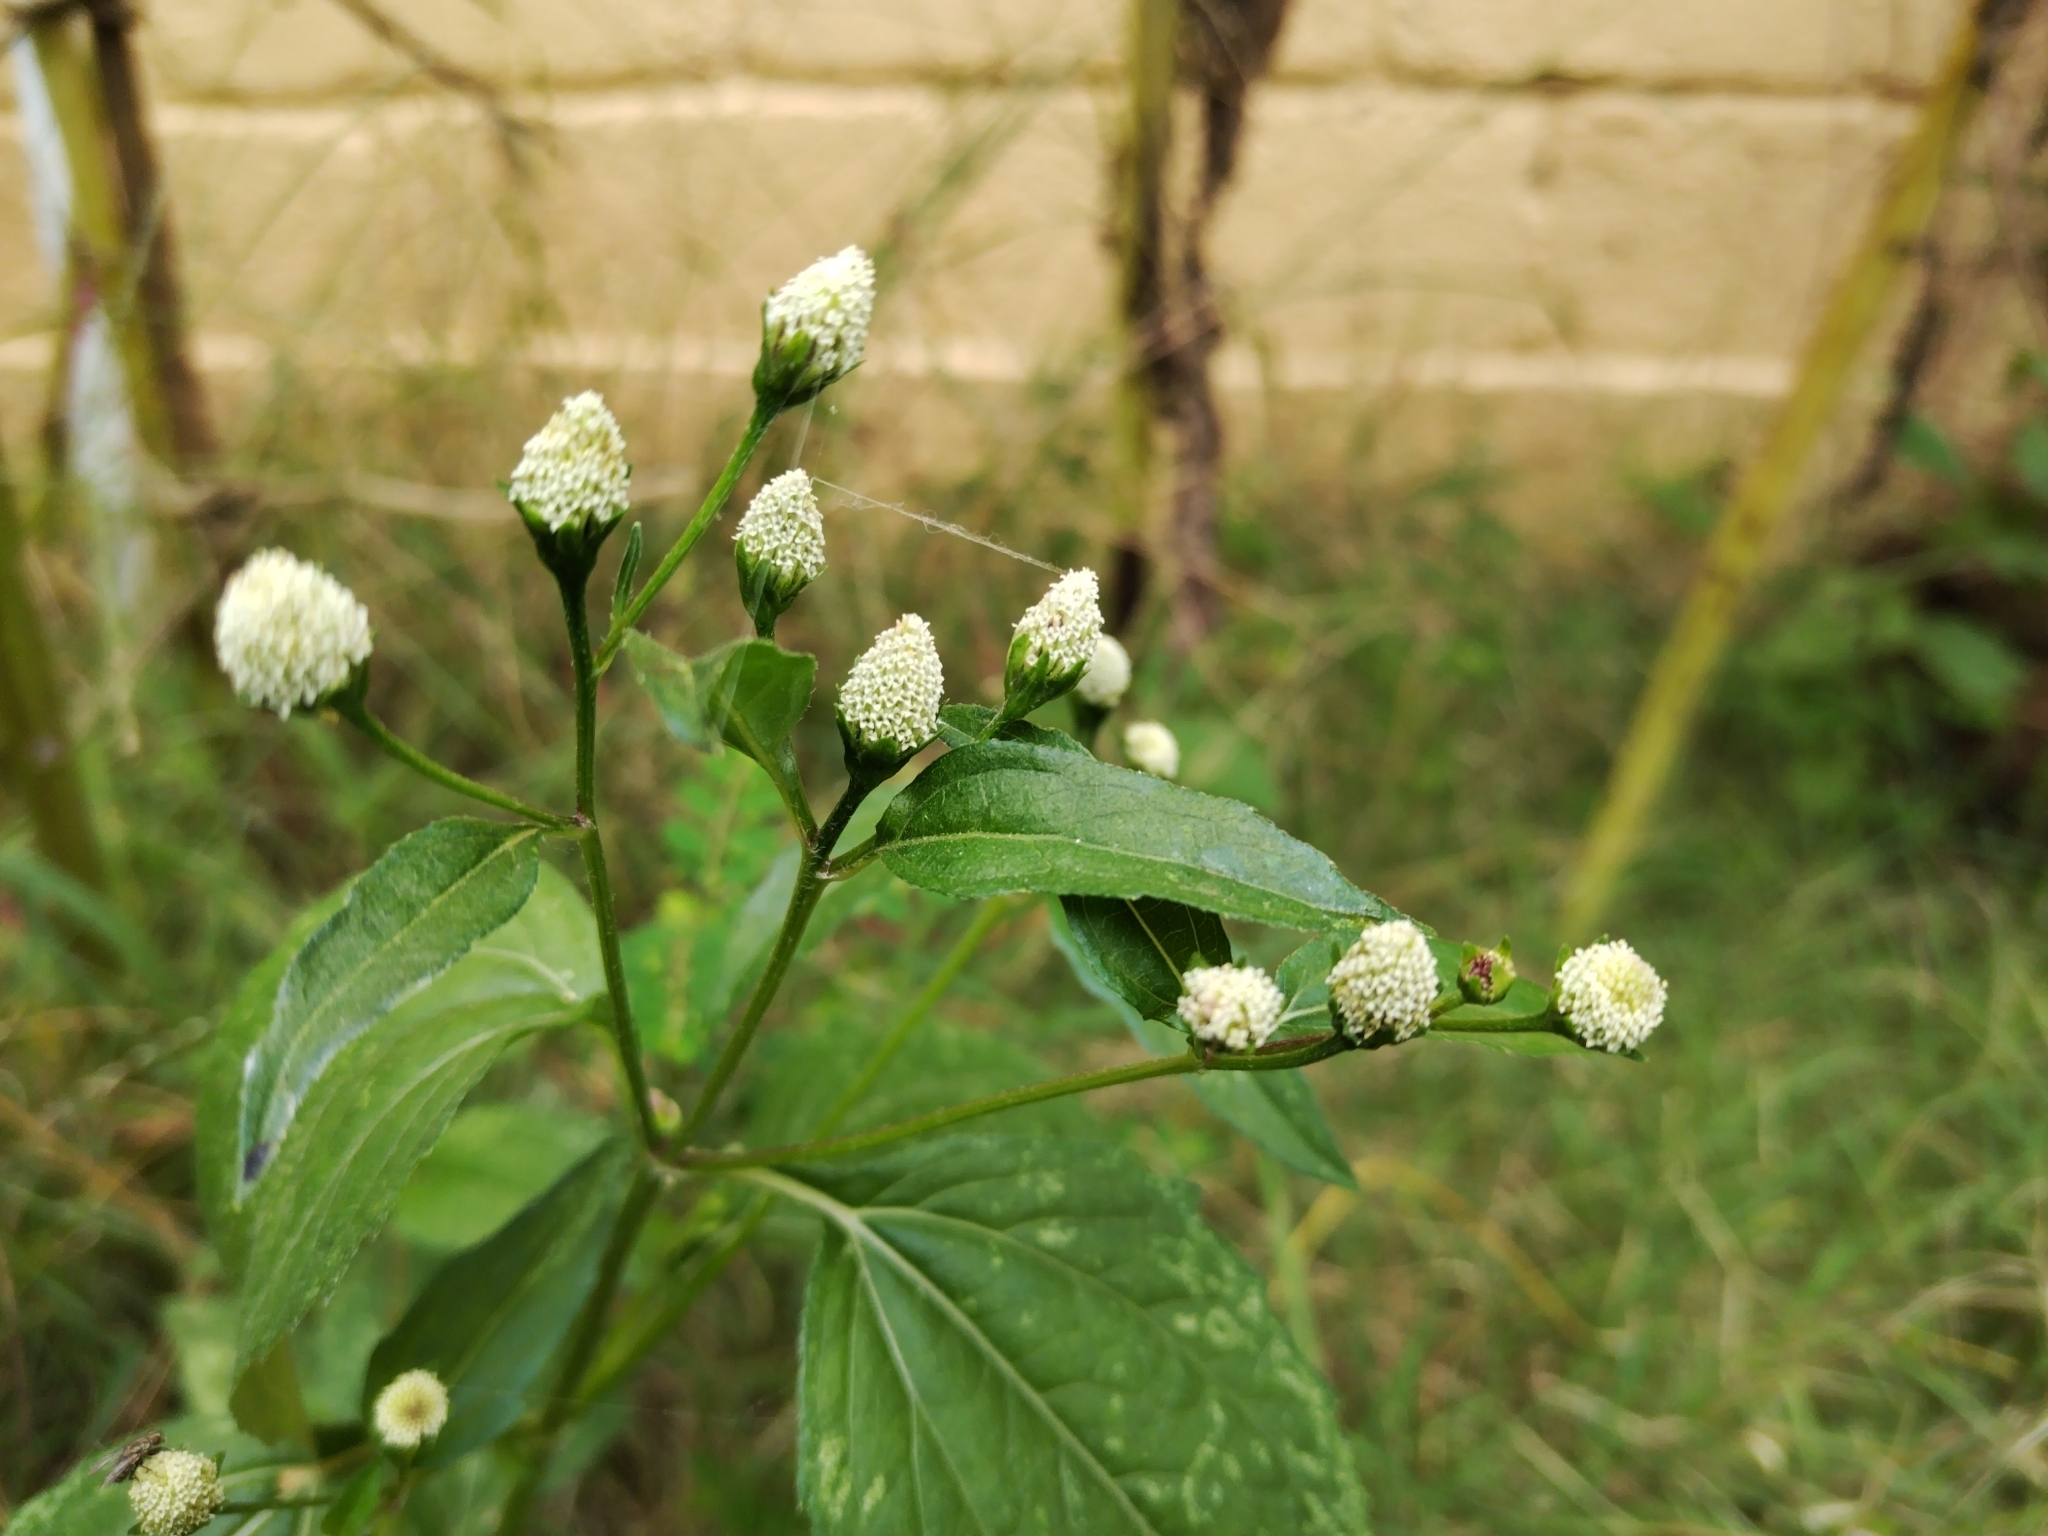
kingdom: Plantae
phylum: Tracheophyta
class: Magnoliopsida
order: Asterales
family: Asteraceae
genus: Acmella
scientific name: Acmella radicans
